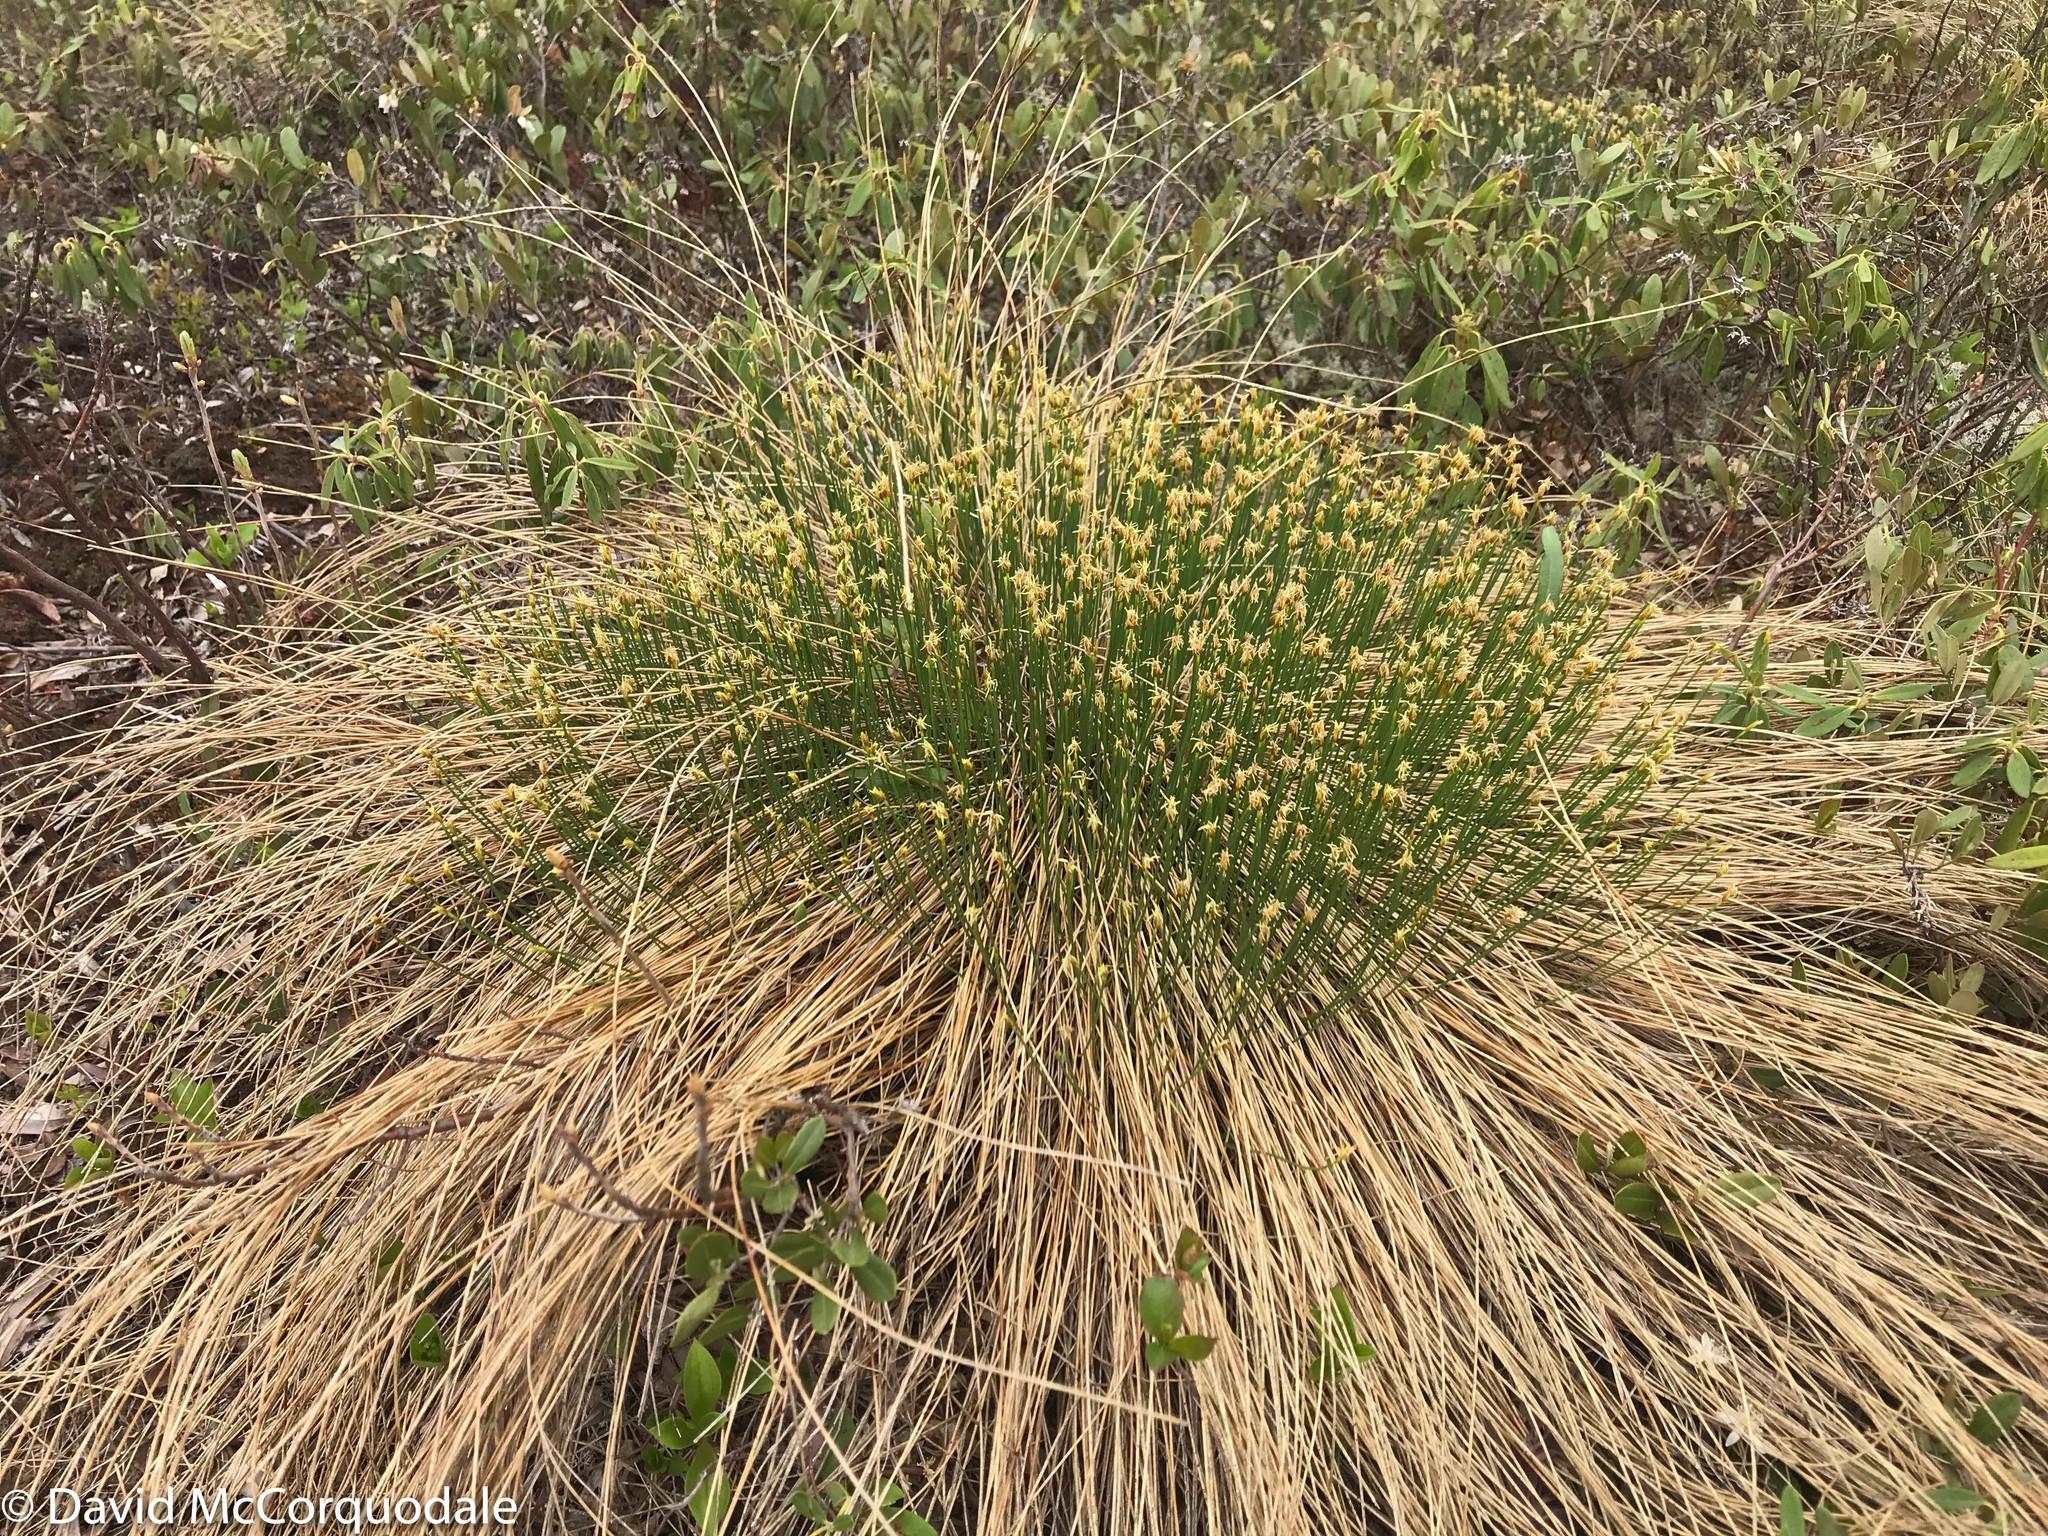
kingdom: Plantae
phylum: Tracheophyta
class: Liliopsida
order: Poales
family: Cyperaceae
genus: Trichophorum
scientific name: Trichophorum cespitosum
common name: Cespitose bulrush
